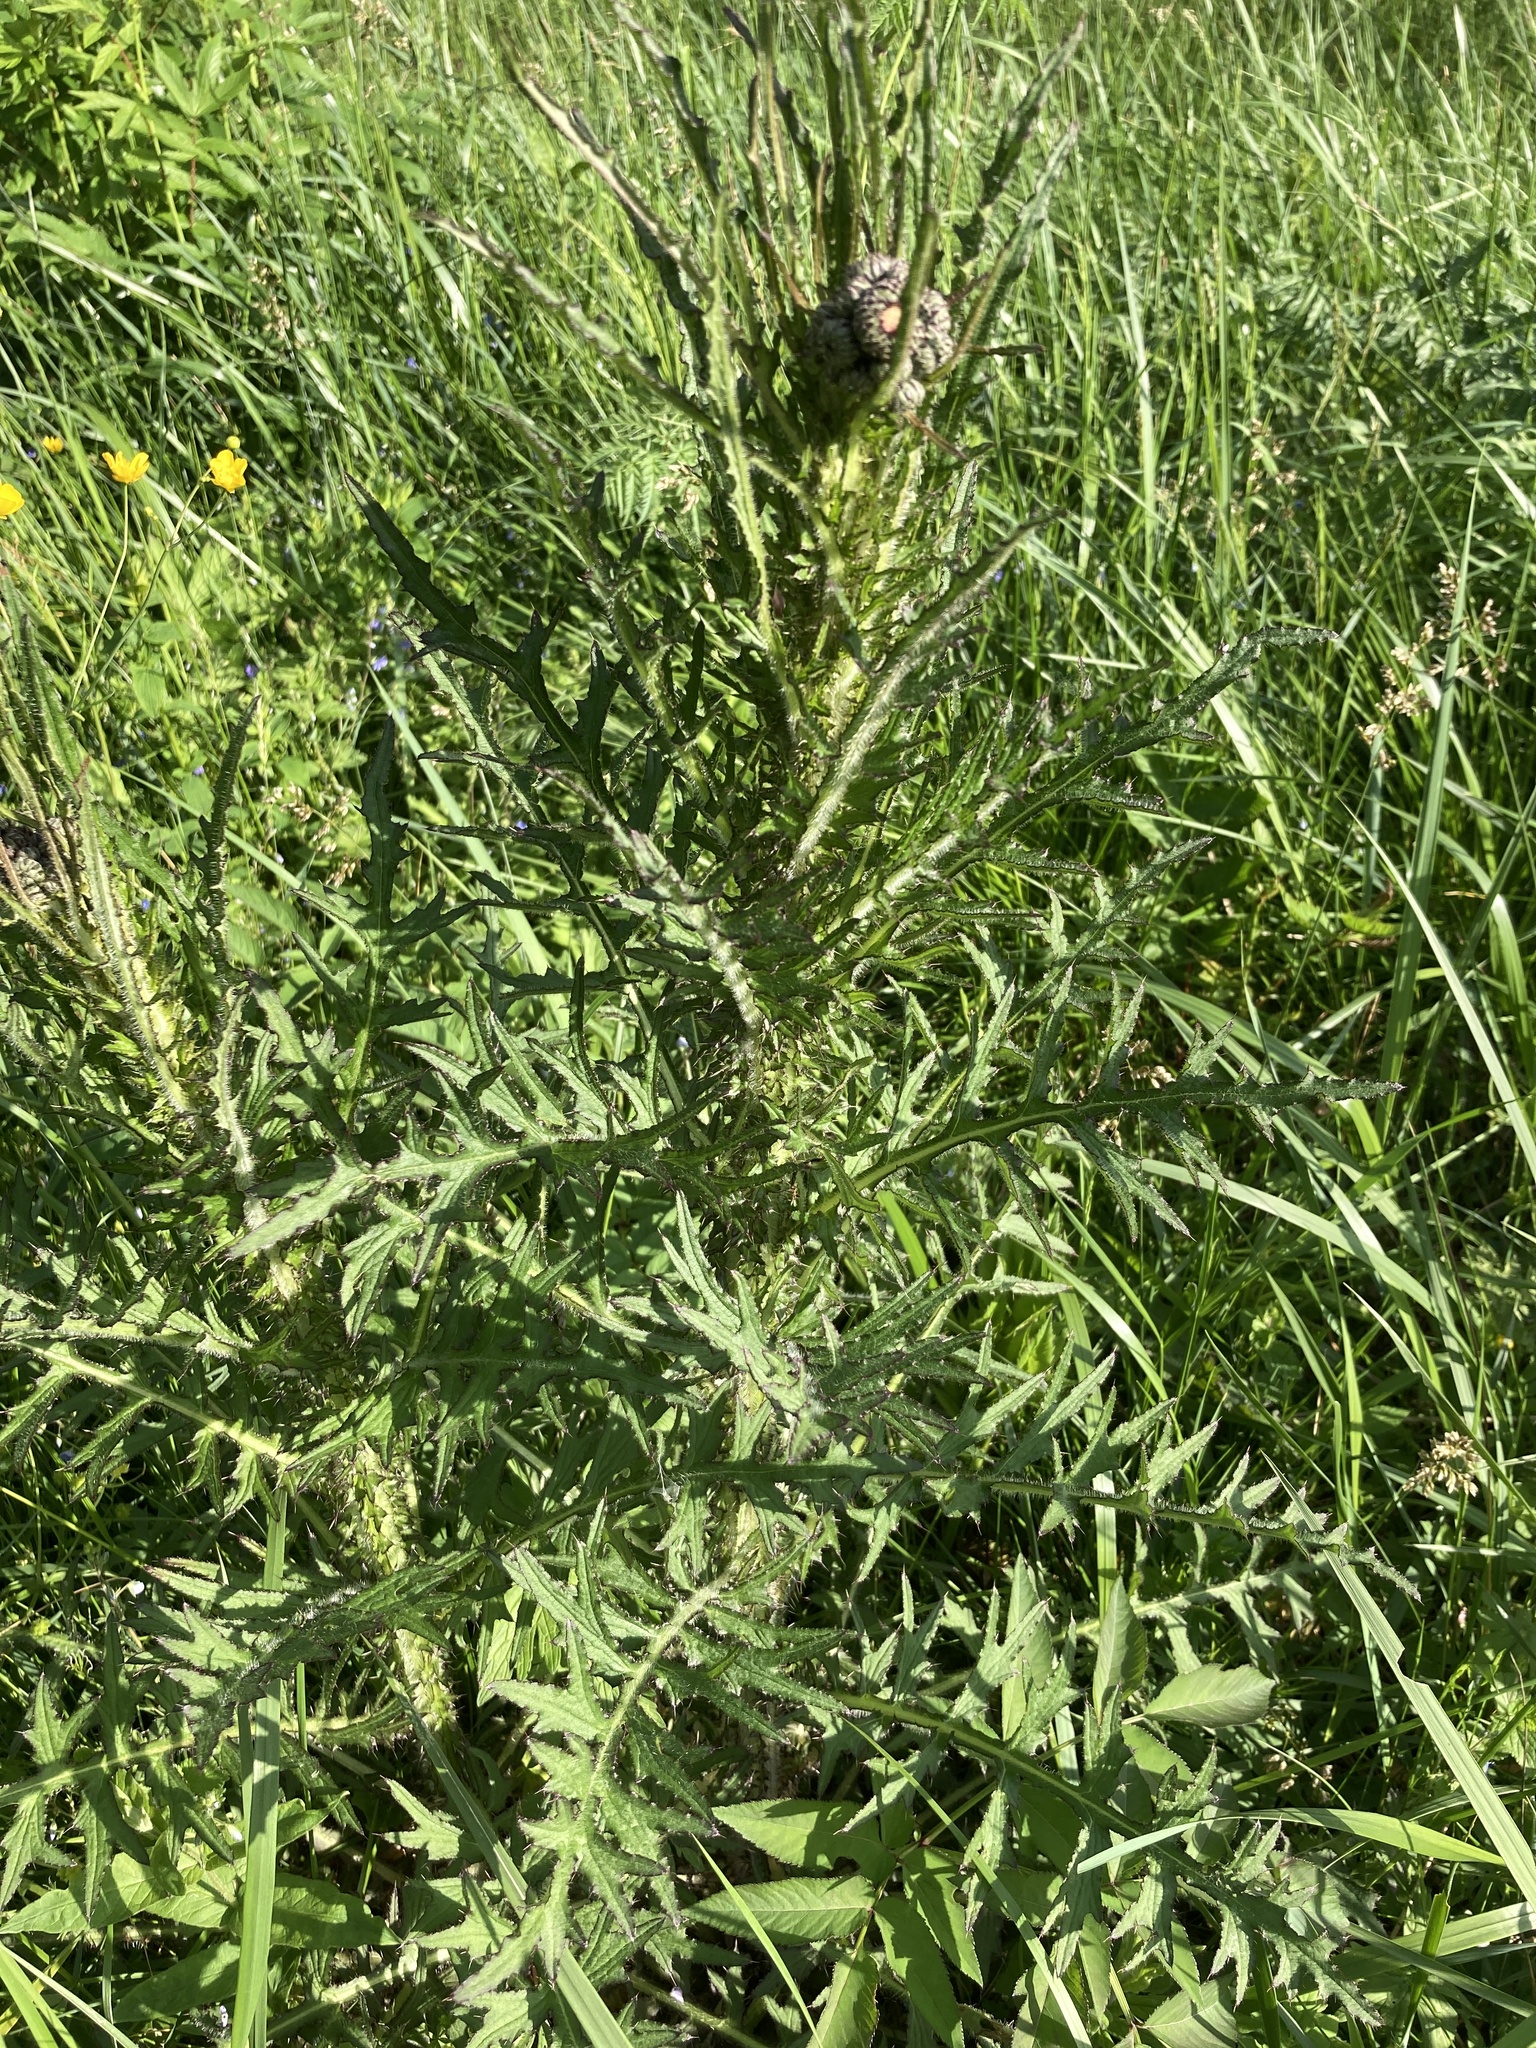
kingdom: Plantae
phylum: Tracheophyta
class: Magnoliopsida
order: Asterales
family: Asteraceae
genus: Cirsium
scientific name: Cirsium palustre
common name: Marsh thistle
